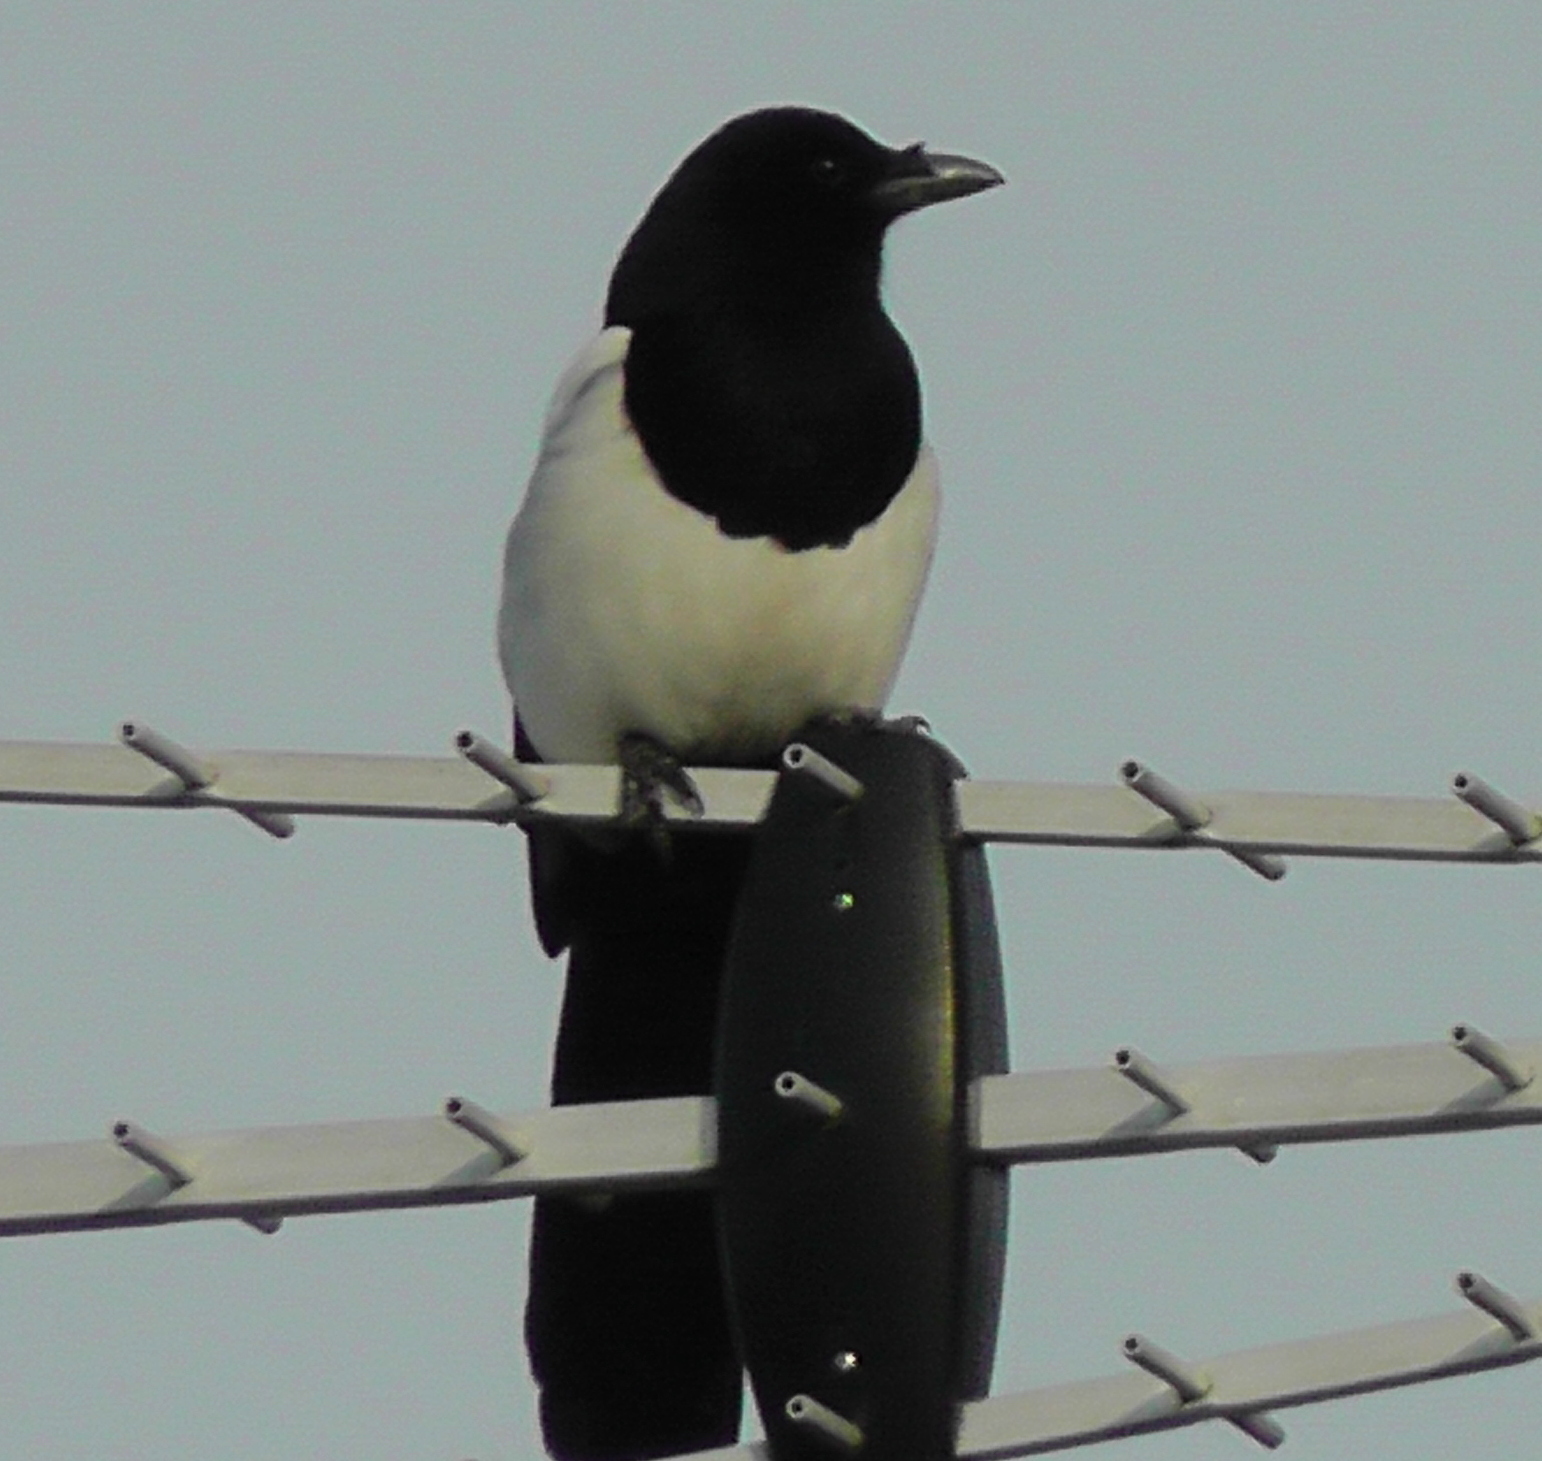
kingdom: Animalia
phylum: Chordata
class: Aves
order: Passeriformes
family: Corvidae
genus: Pica
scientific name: Pica pica
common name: Eurasian magpie
